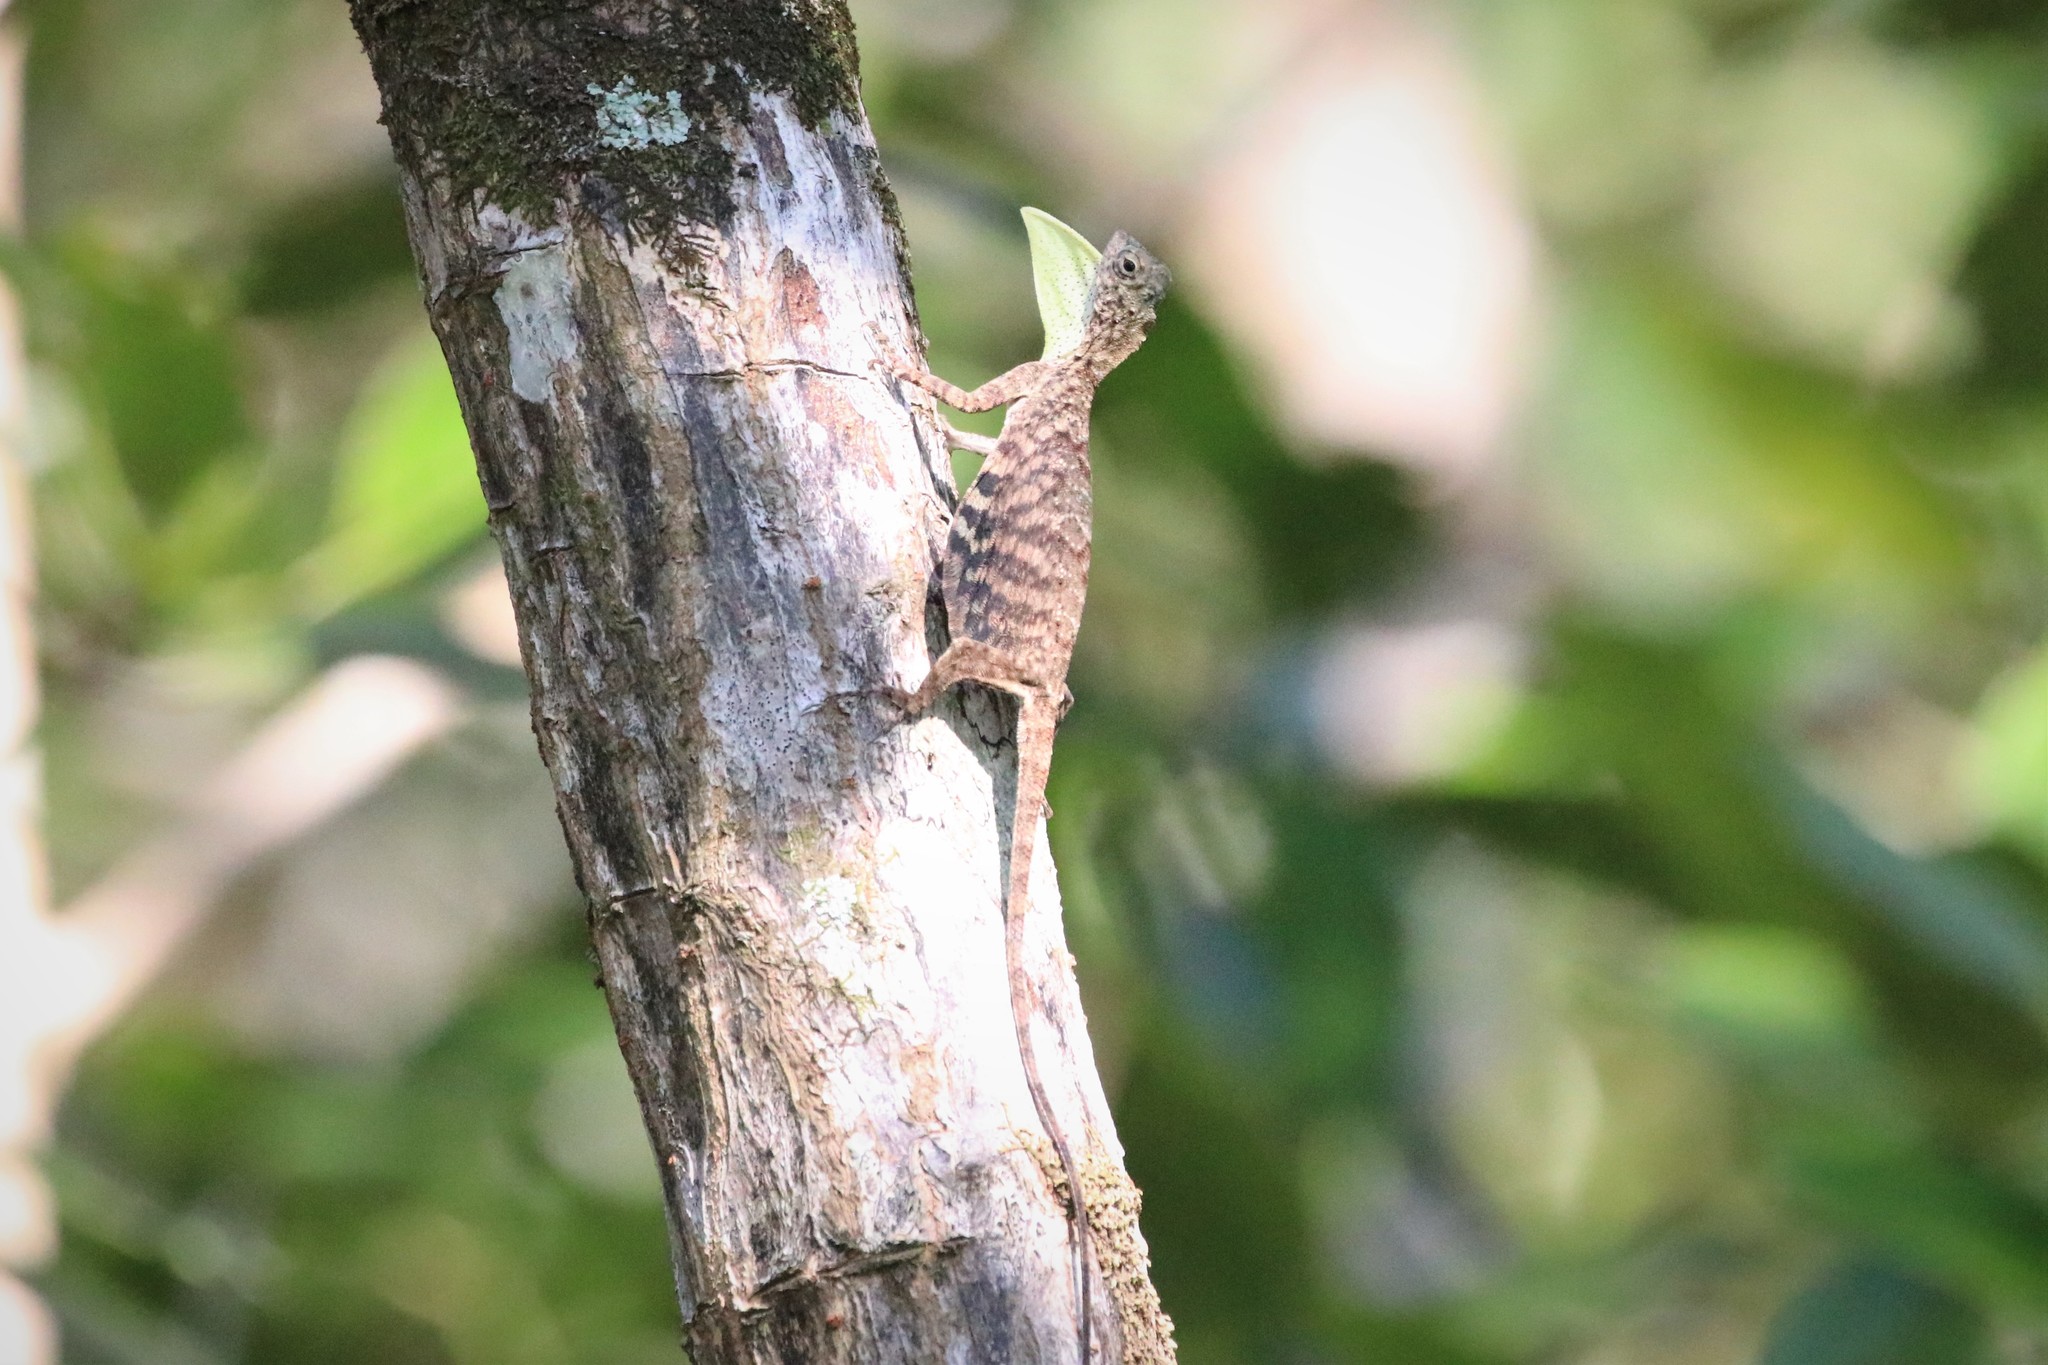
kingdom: Animalia
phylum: Chordata
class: Squamata
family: Agamidae
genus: Draco
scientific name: Draco sumatranus
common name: Common gliding lizard
